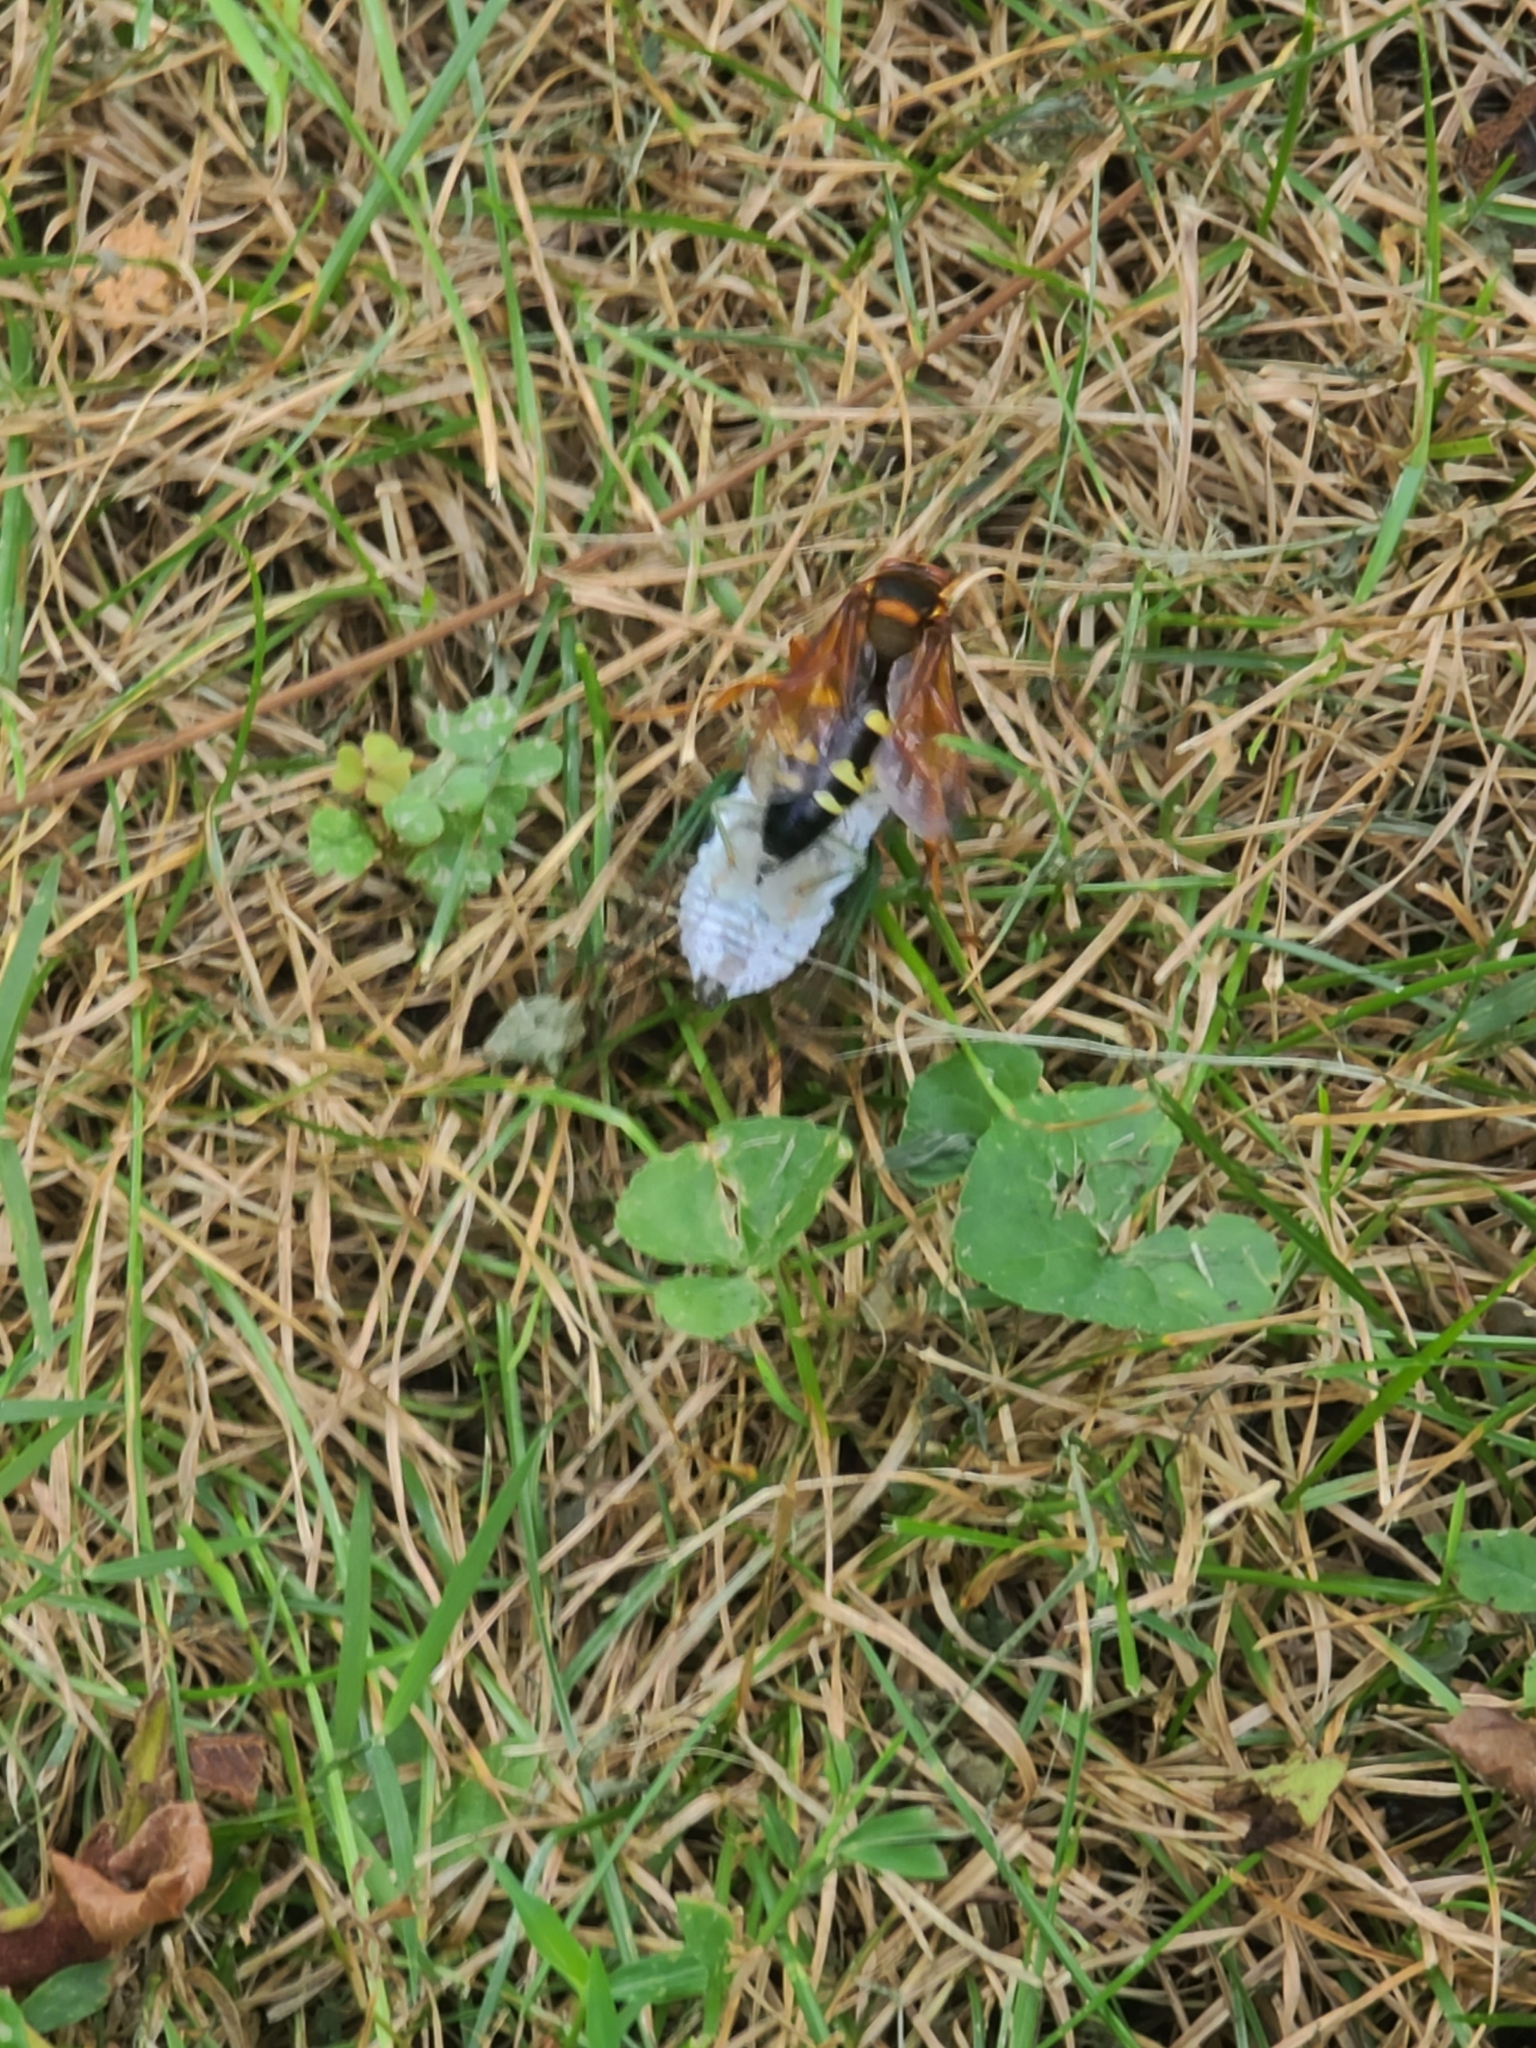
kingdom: Animalia
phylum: Arthropoda
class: Insecta
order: Hymenoptera
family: Crabronidae
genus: Sphecius
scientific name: Sphecius speciosus
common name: Cicada killer
